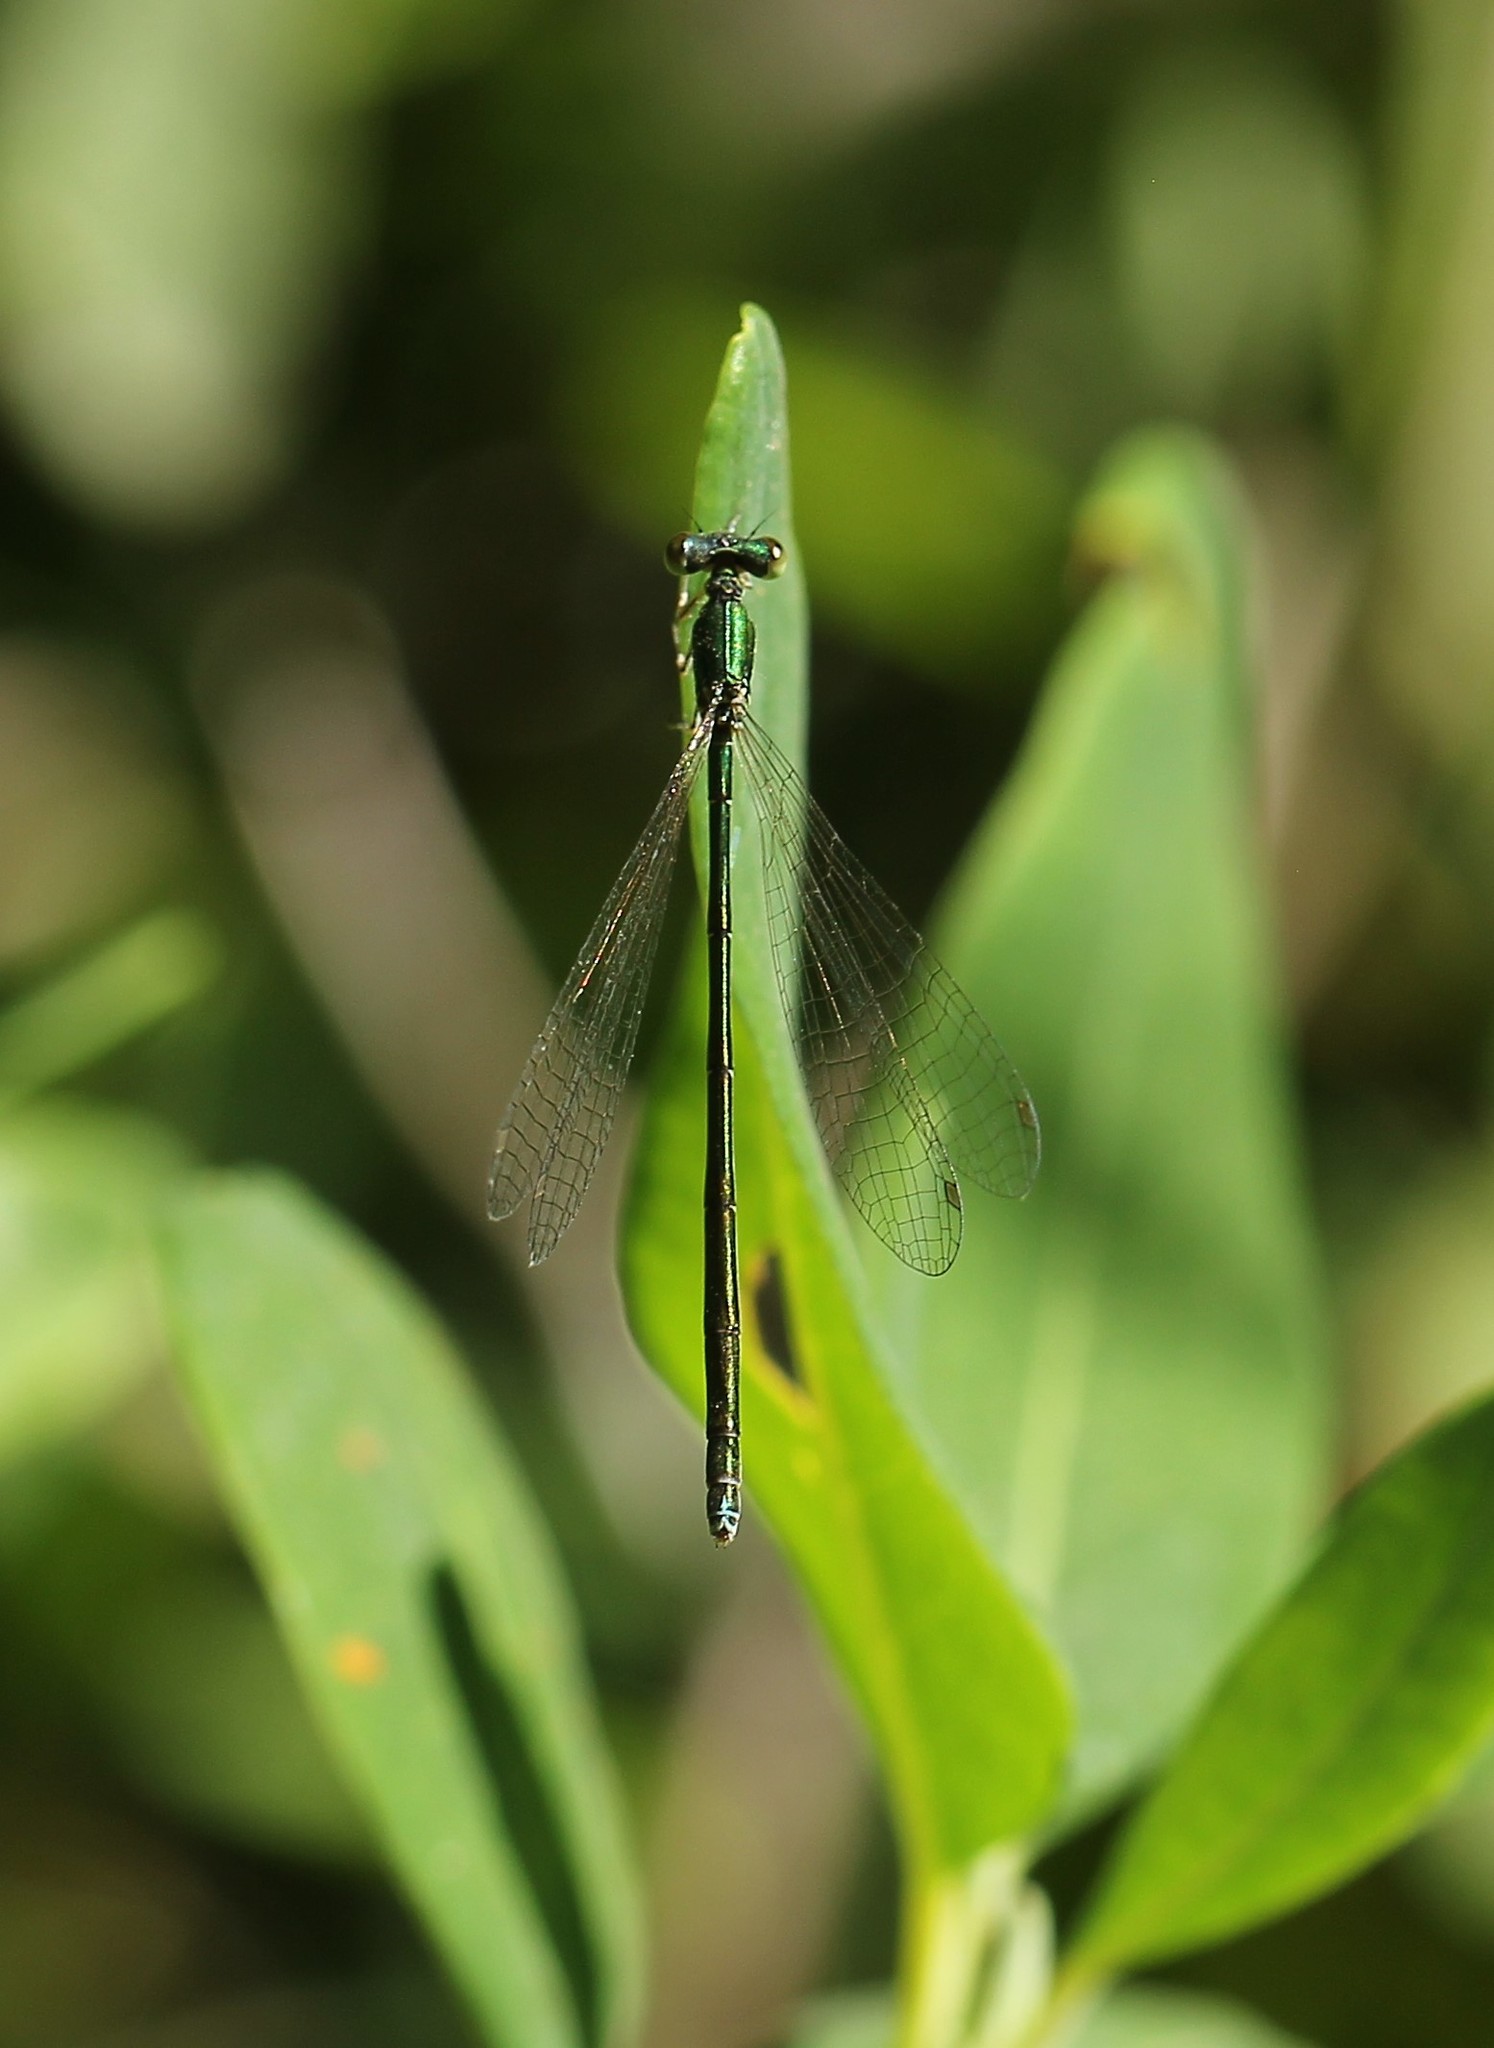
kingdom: Animalia
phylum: Arthropoda
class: Insecta
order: Odonata
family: Coenagrionidae
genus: Nehalennia
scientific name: Nehalennia irene
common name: Sedge sprite
